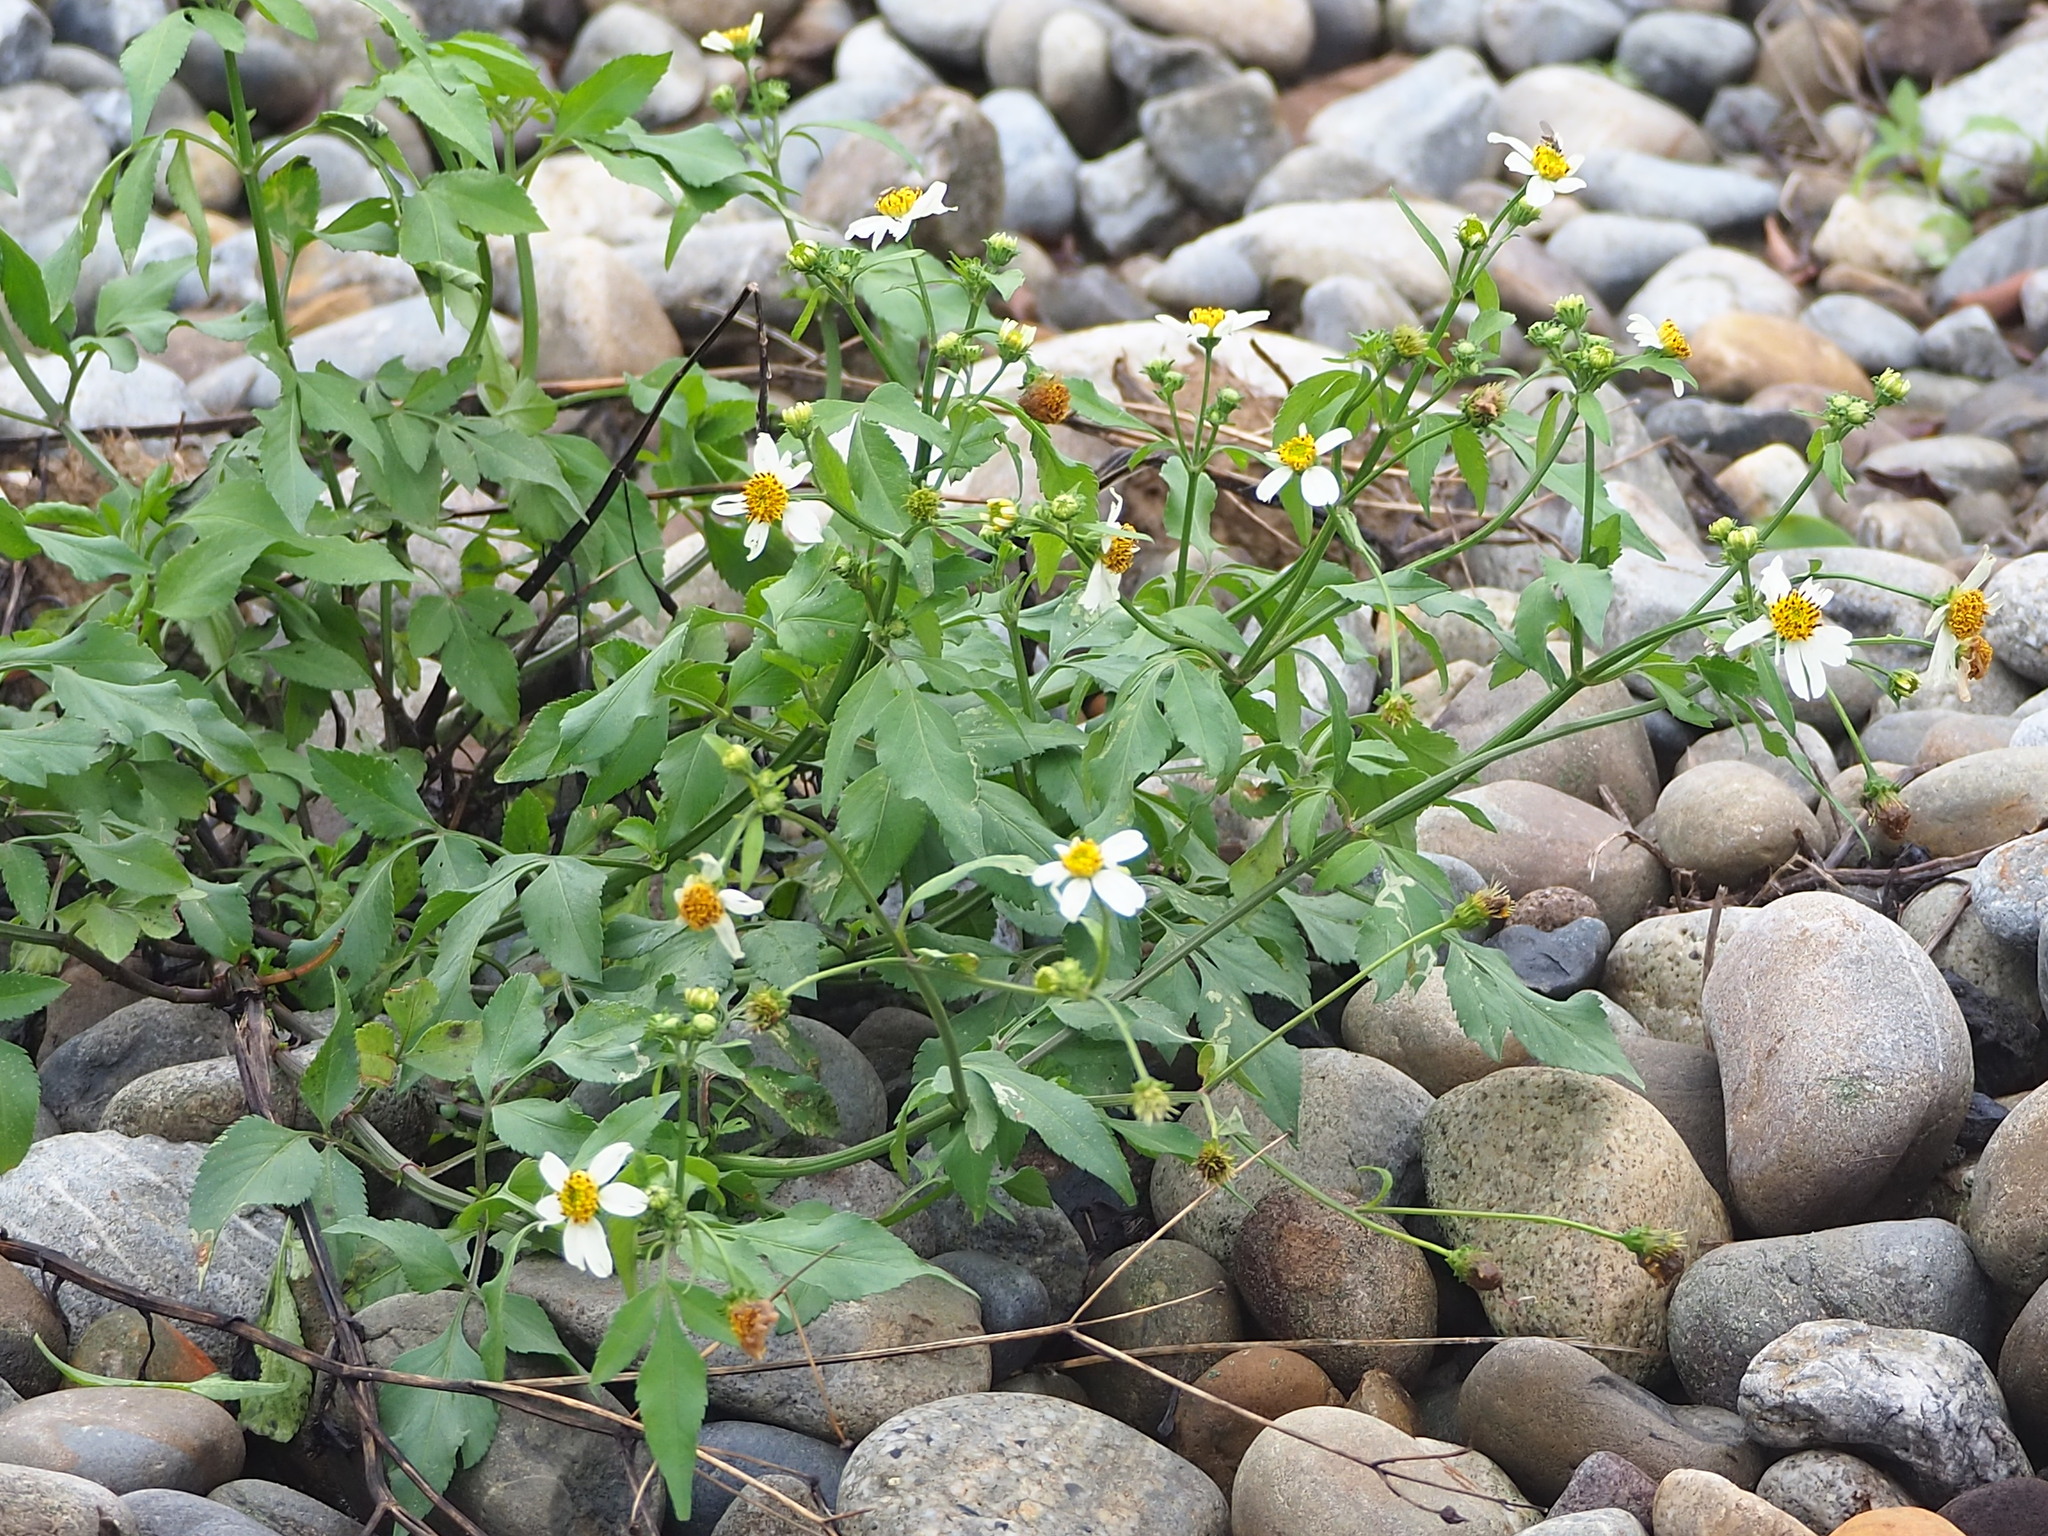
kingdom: Plantae
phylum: Tracheophyta
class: Magnoliopsida
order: Asterales
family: Asteraceae
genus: Bidens
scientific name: Bidens alba
